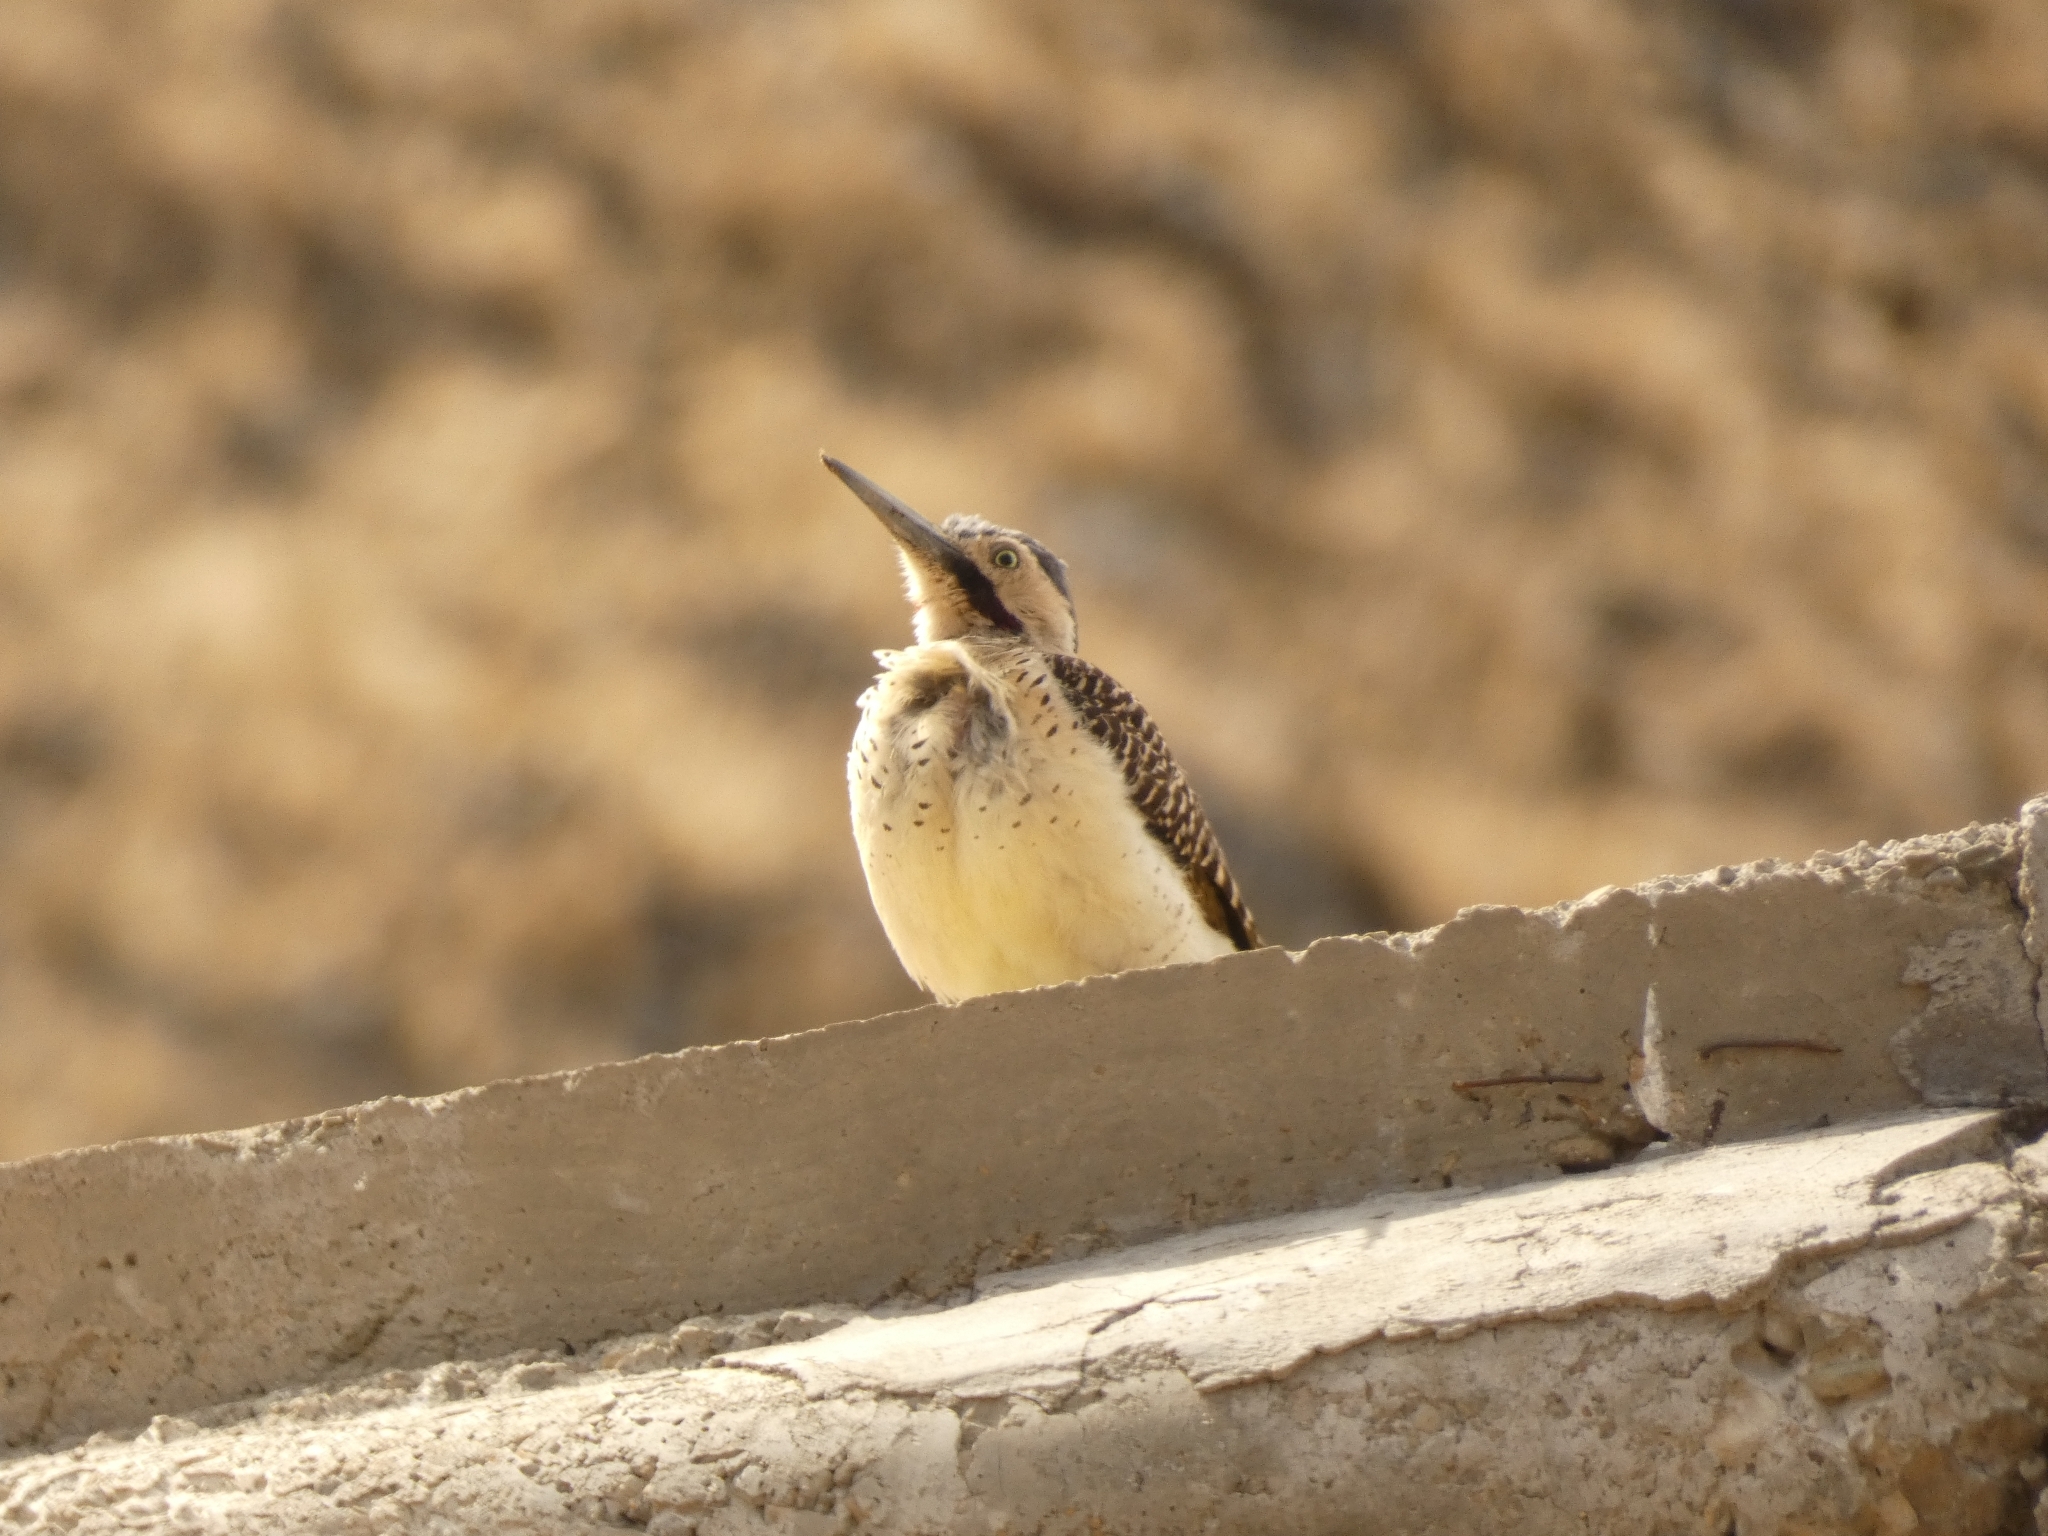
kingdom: Animalia
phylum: Chordata
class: Aves
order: Piciformes
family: Picidae
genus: Colaptes
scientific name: Colaptes rupicola
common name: Andean flicker
